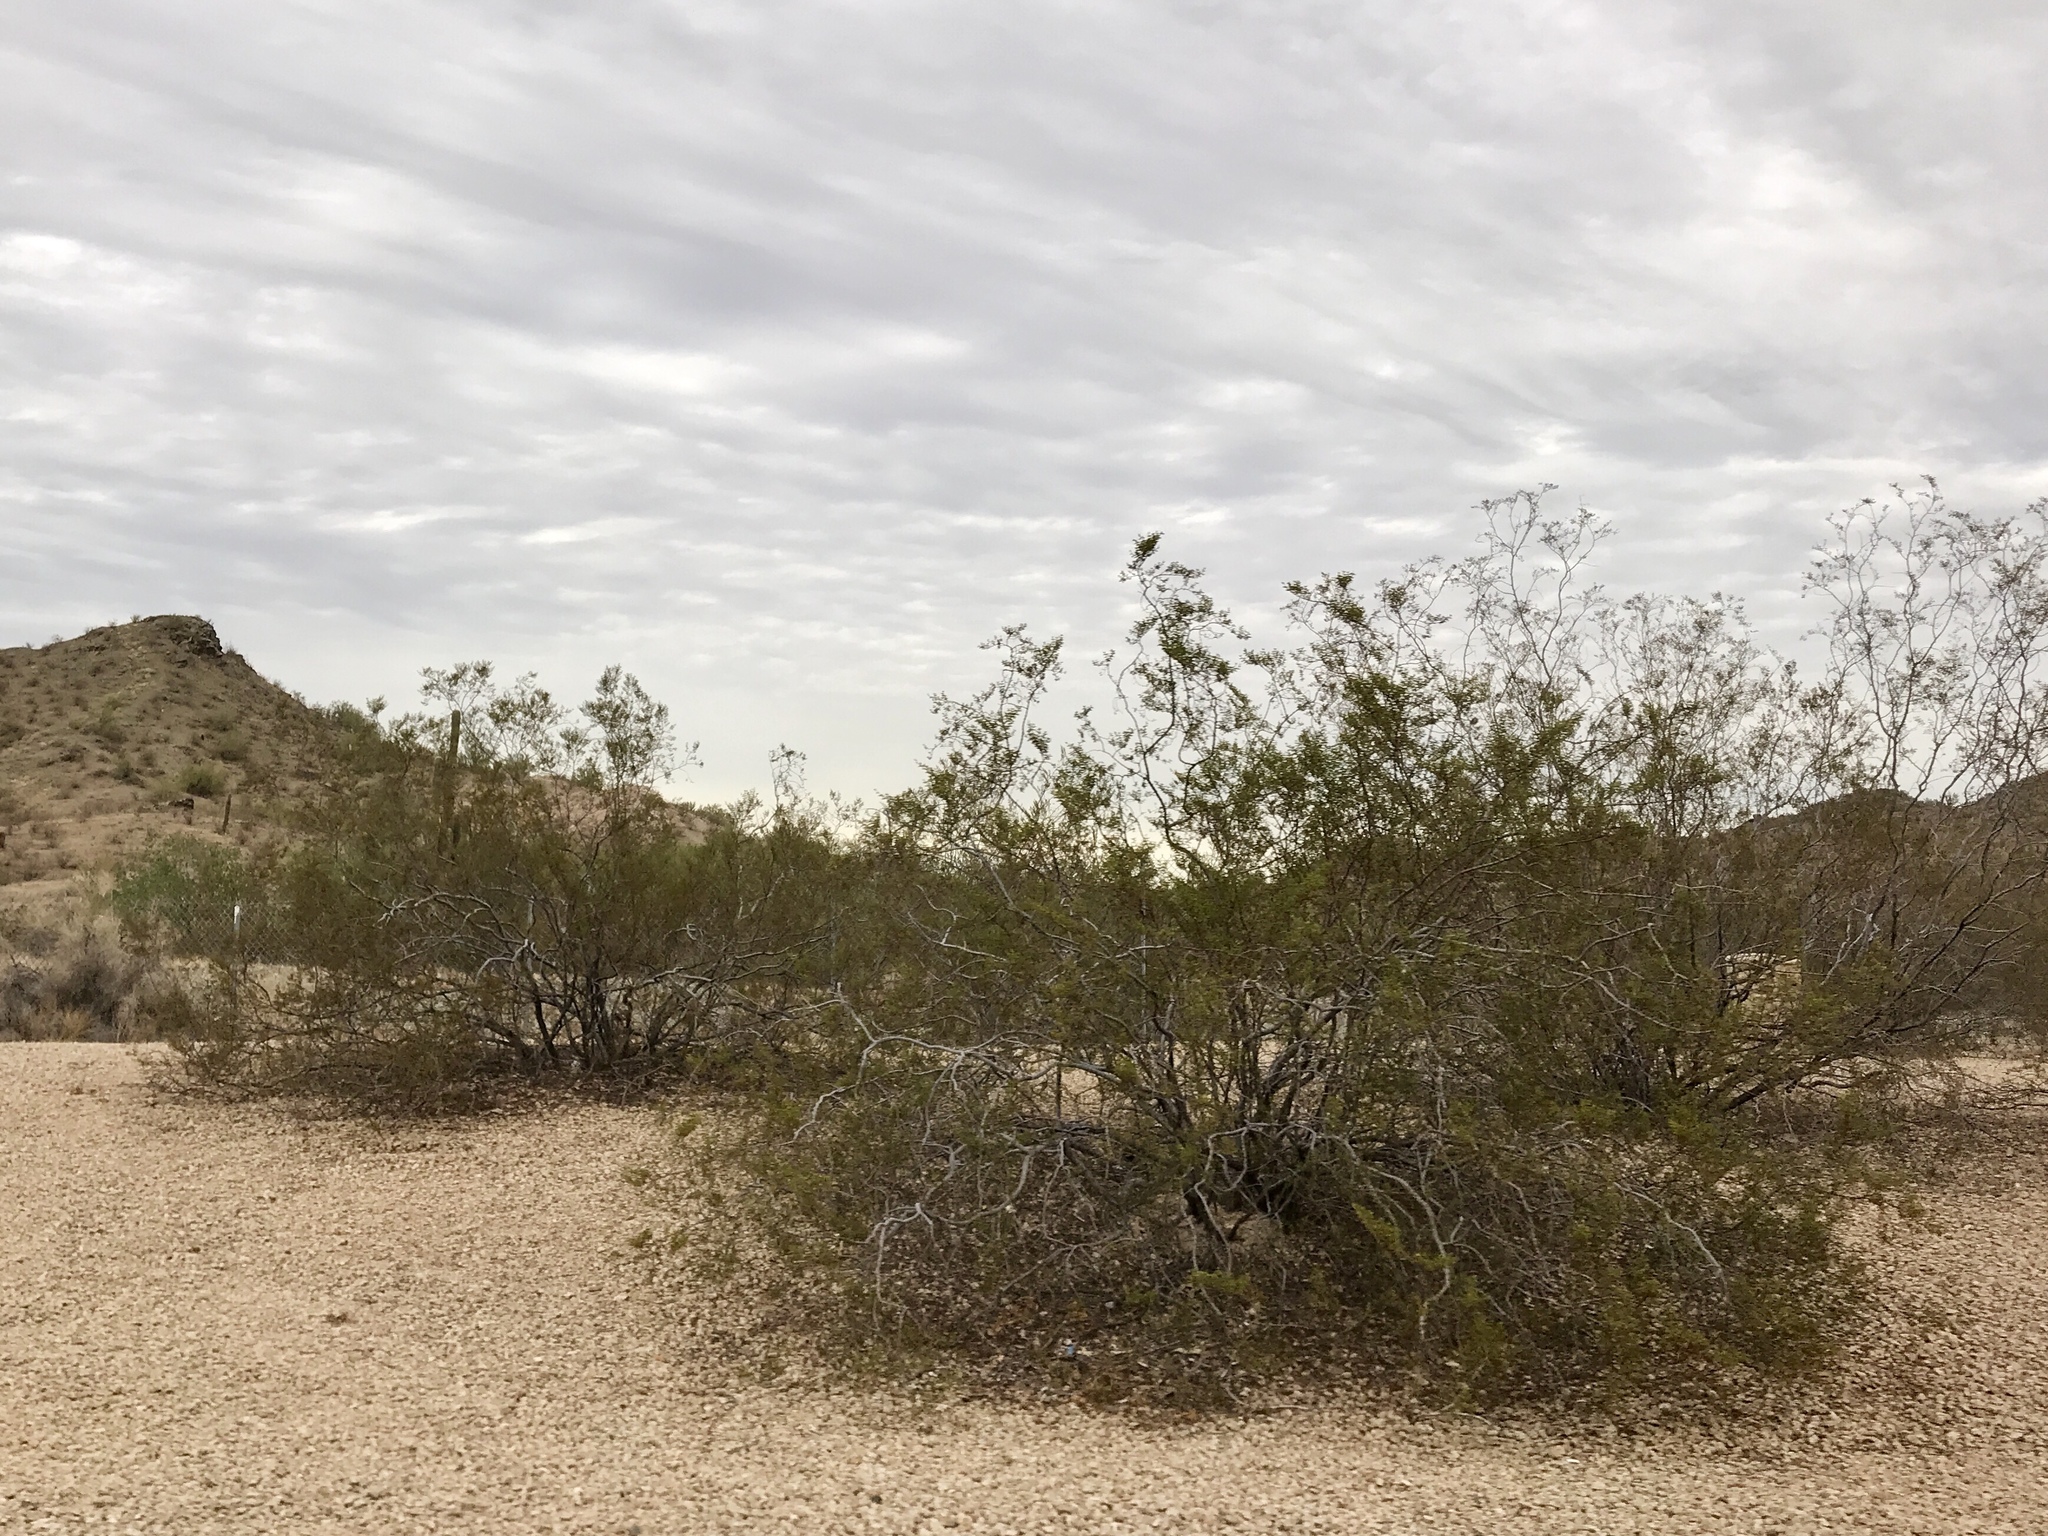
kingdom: Plantae
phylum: Tracheophyta
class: Magnoliopsida
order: Zygophyllales
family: Zygophyllaceae
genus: Larrea
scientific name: Larrea tridentata
